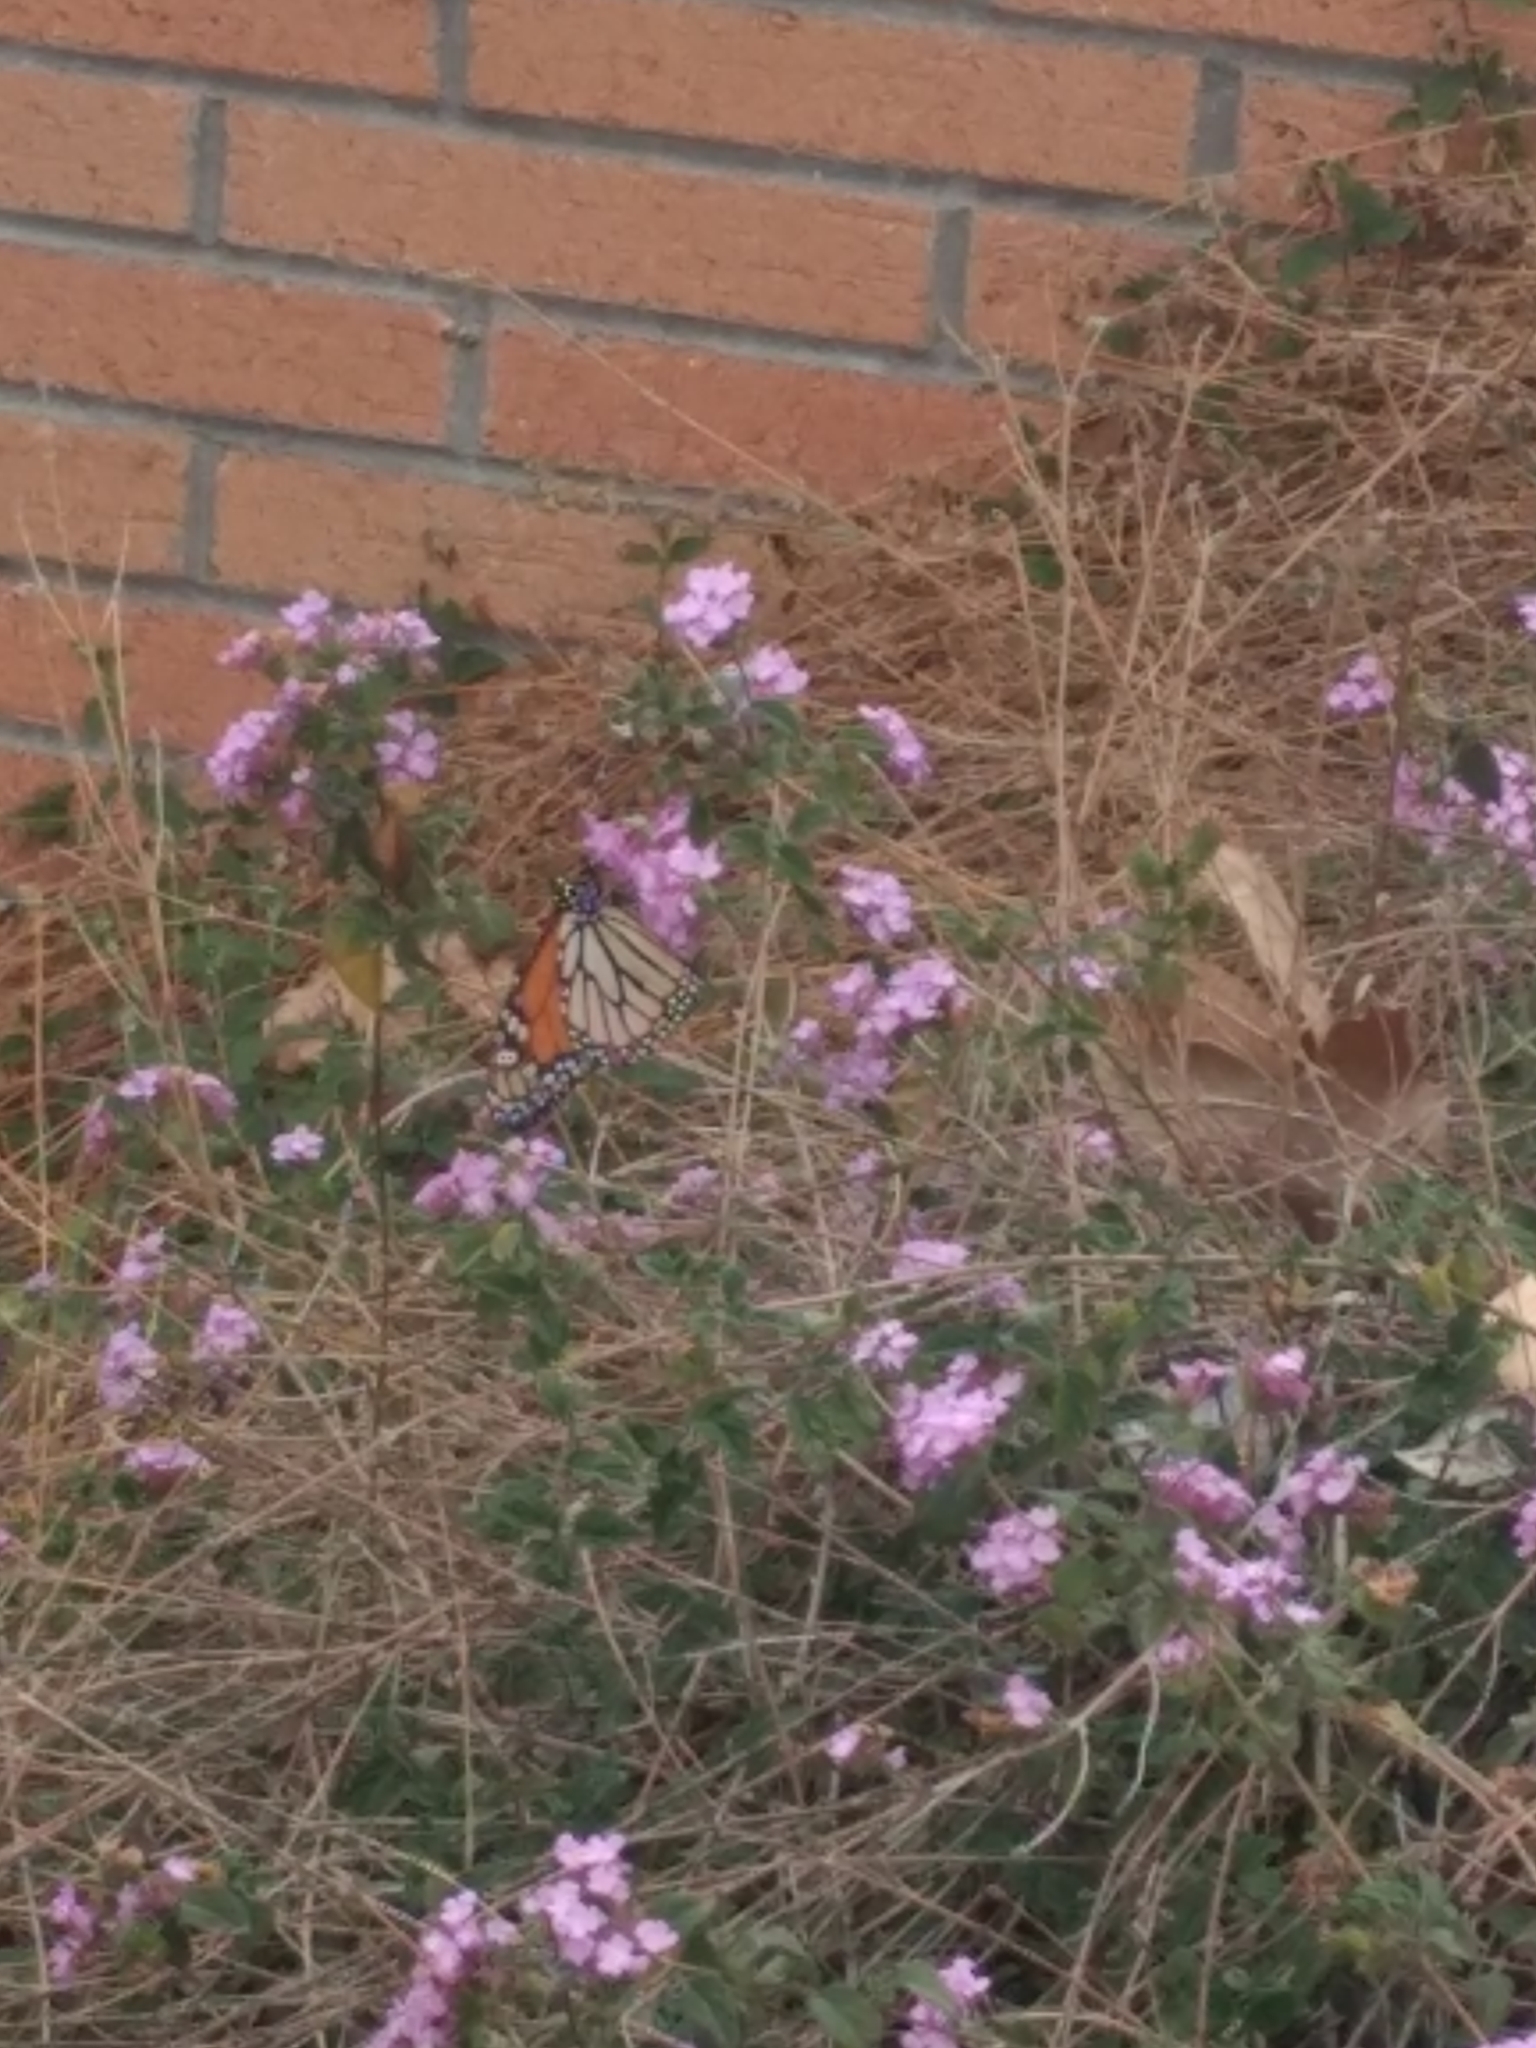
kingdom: Animalia
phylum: Arthropoda
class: Insecta
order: Lepidoptera
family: Nymphalidae
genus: Danaus
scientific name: Danaus plexippus
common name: Monarch
